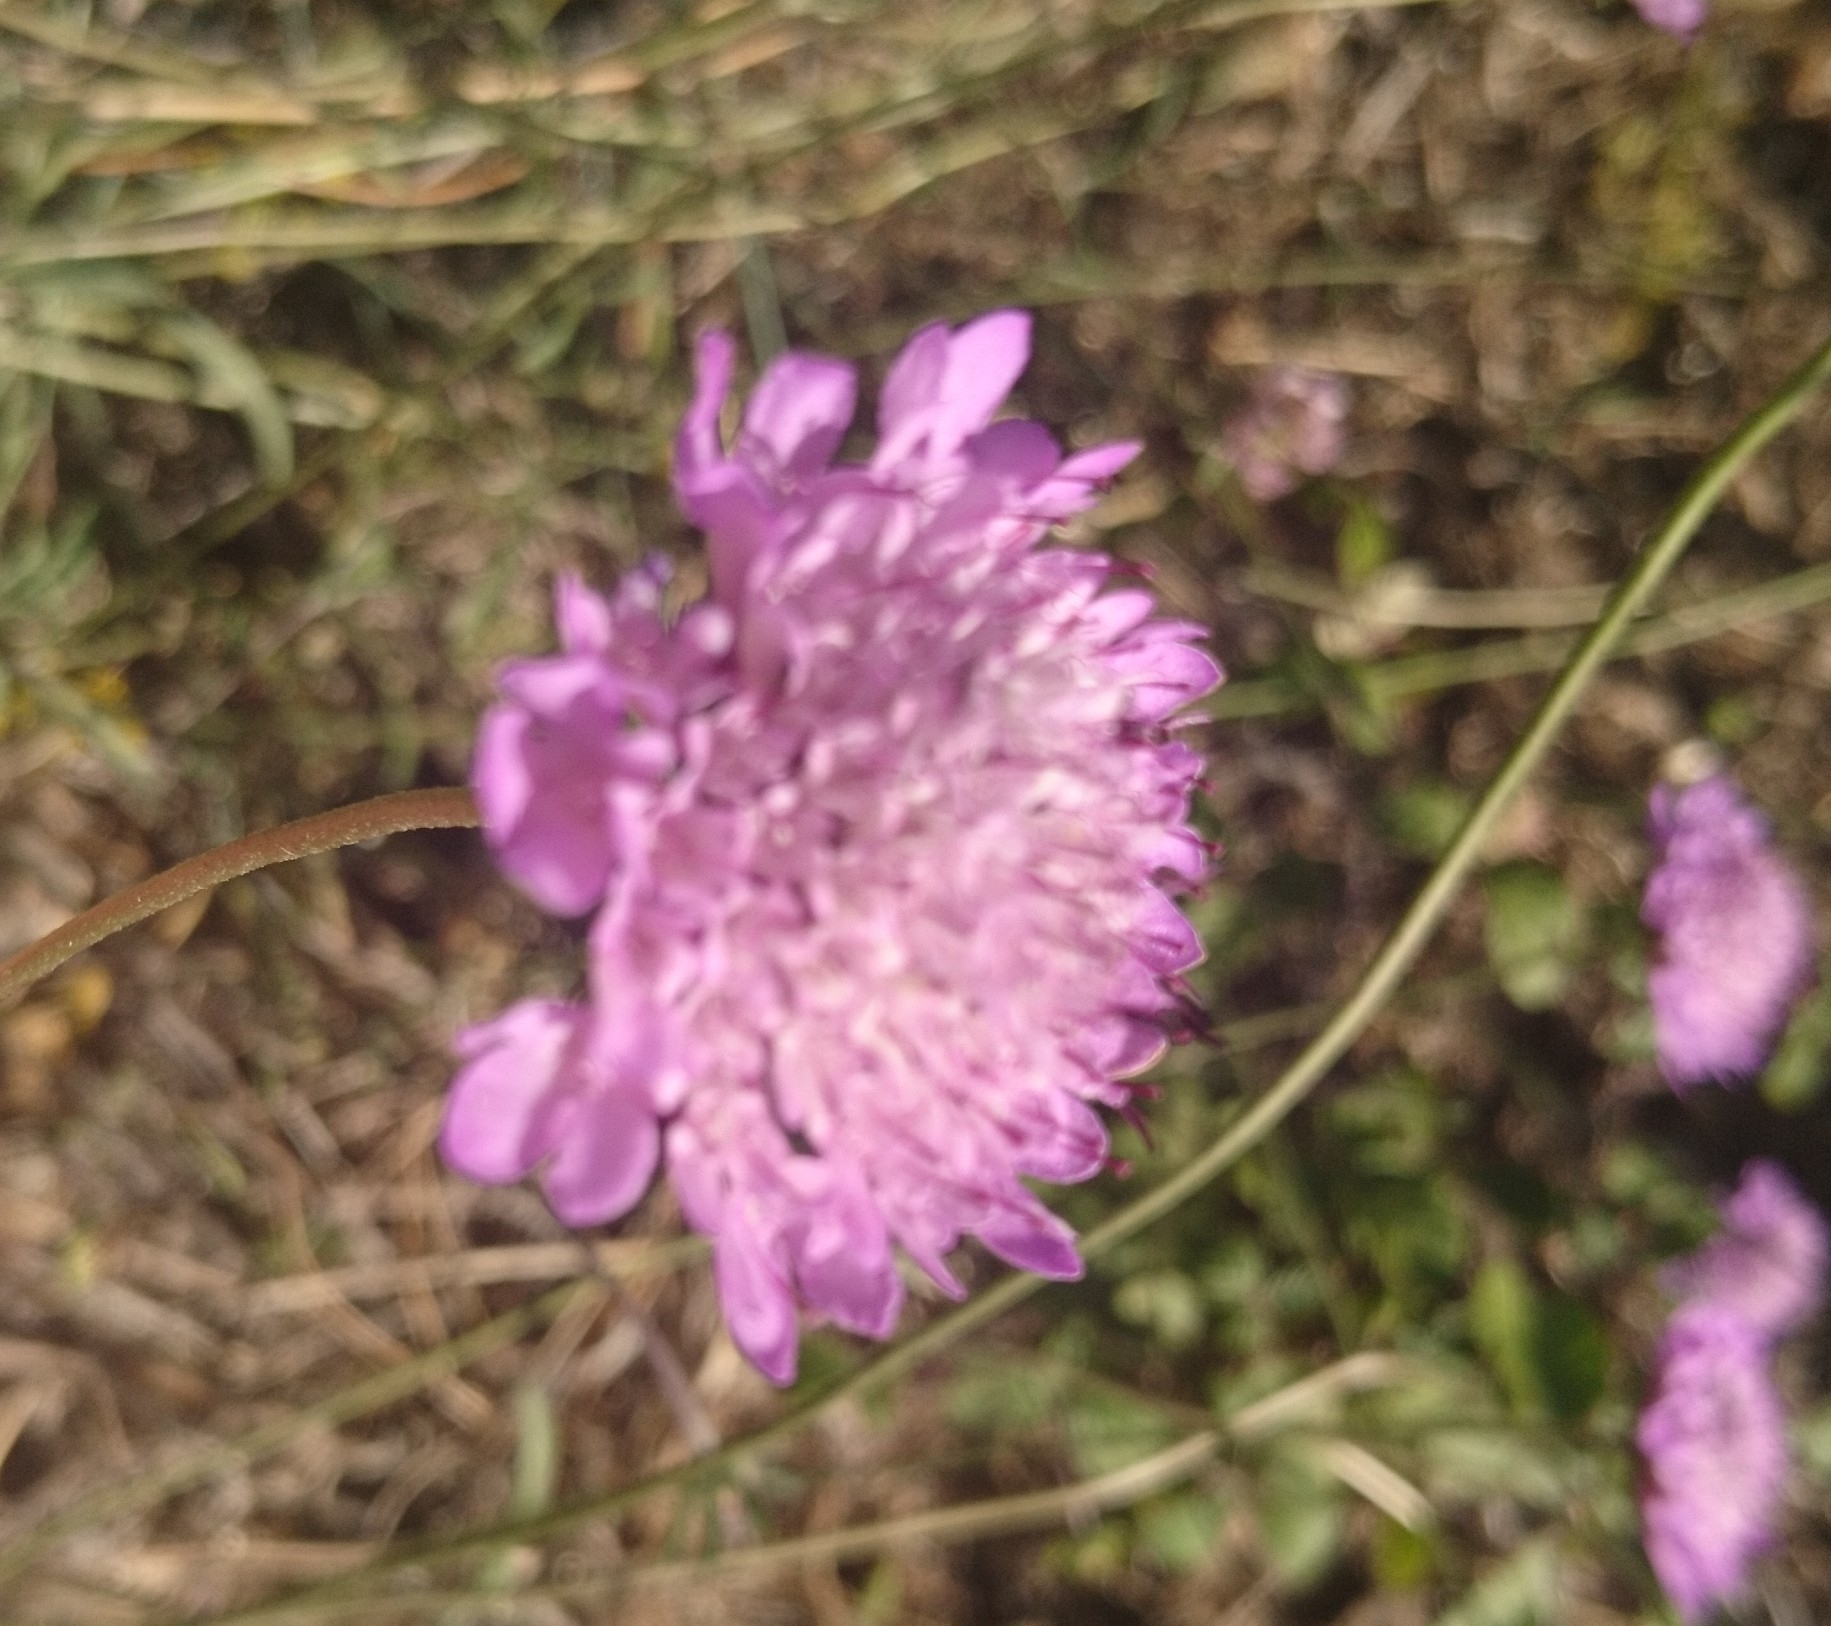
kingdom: Plantae
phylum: Tracheophyta
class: Magnoliopsida
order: Dipsacales
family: Caprifoliaceae
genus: Sixalix
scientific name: Sixalix atropurpurea
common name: Sweet scabious
